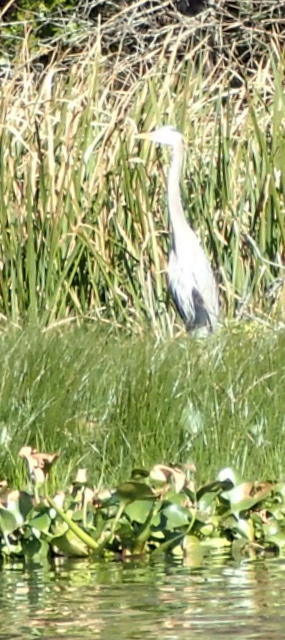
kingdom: Animalia
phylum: Chordata
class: Aves
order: Pelecaniformes
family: Ardeidae
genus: Ardea
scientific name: Ardea herodias
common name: Great blue heron
